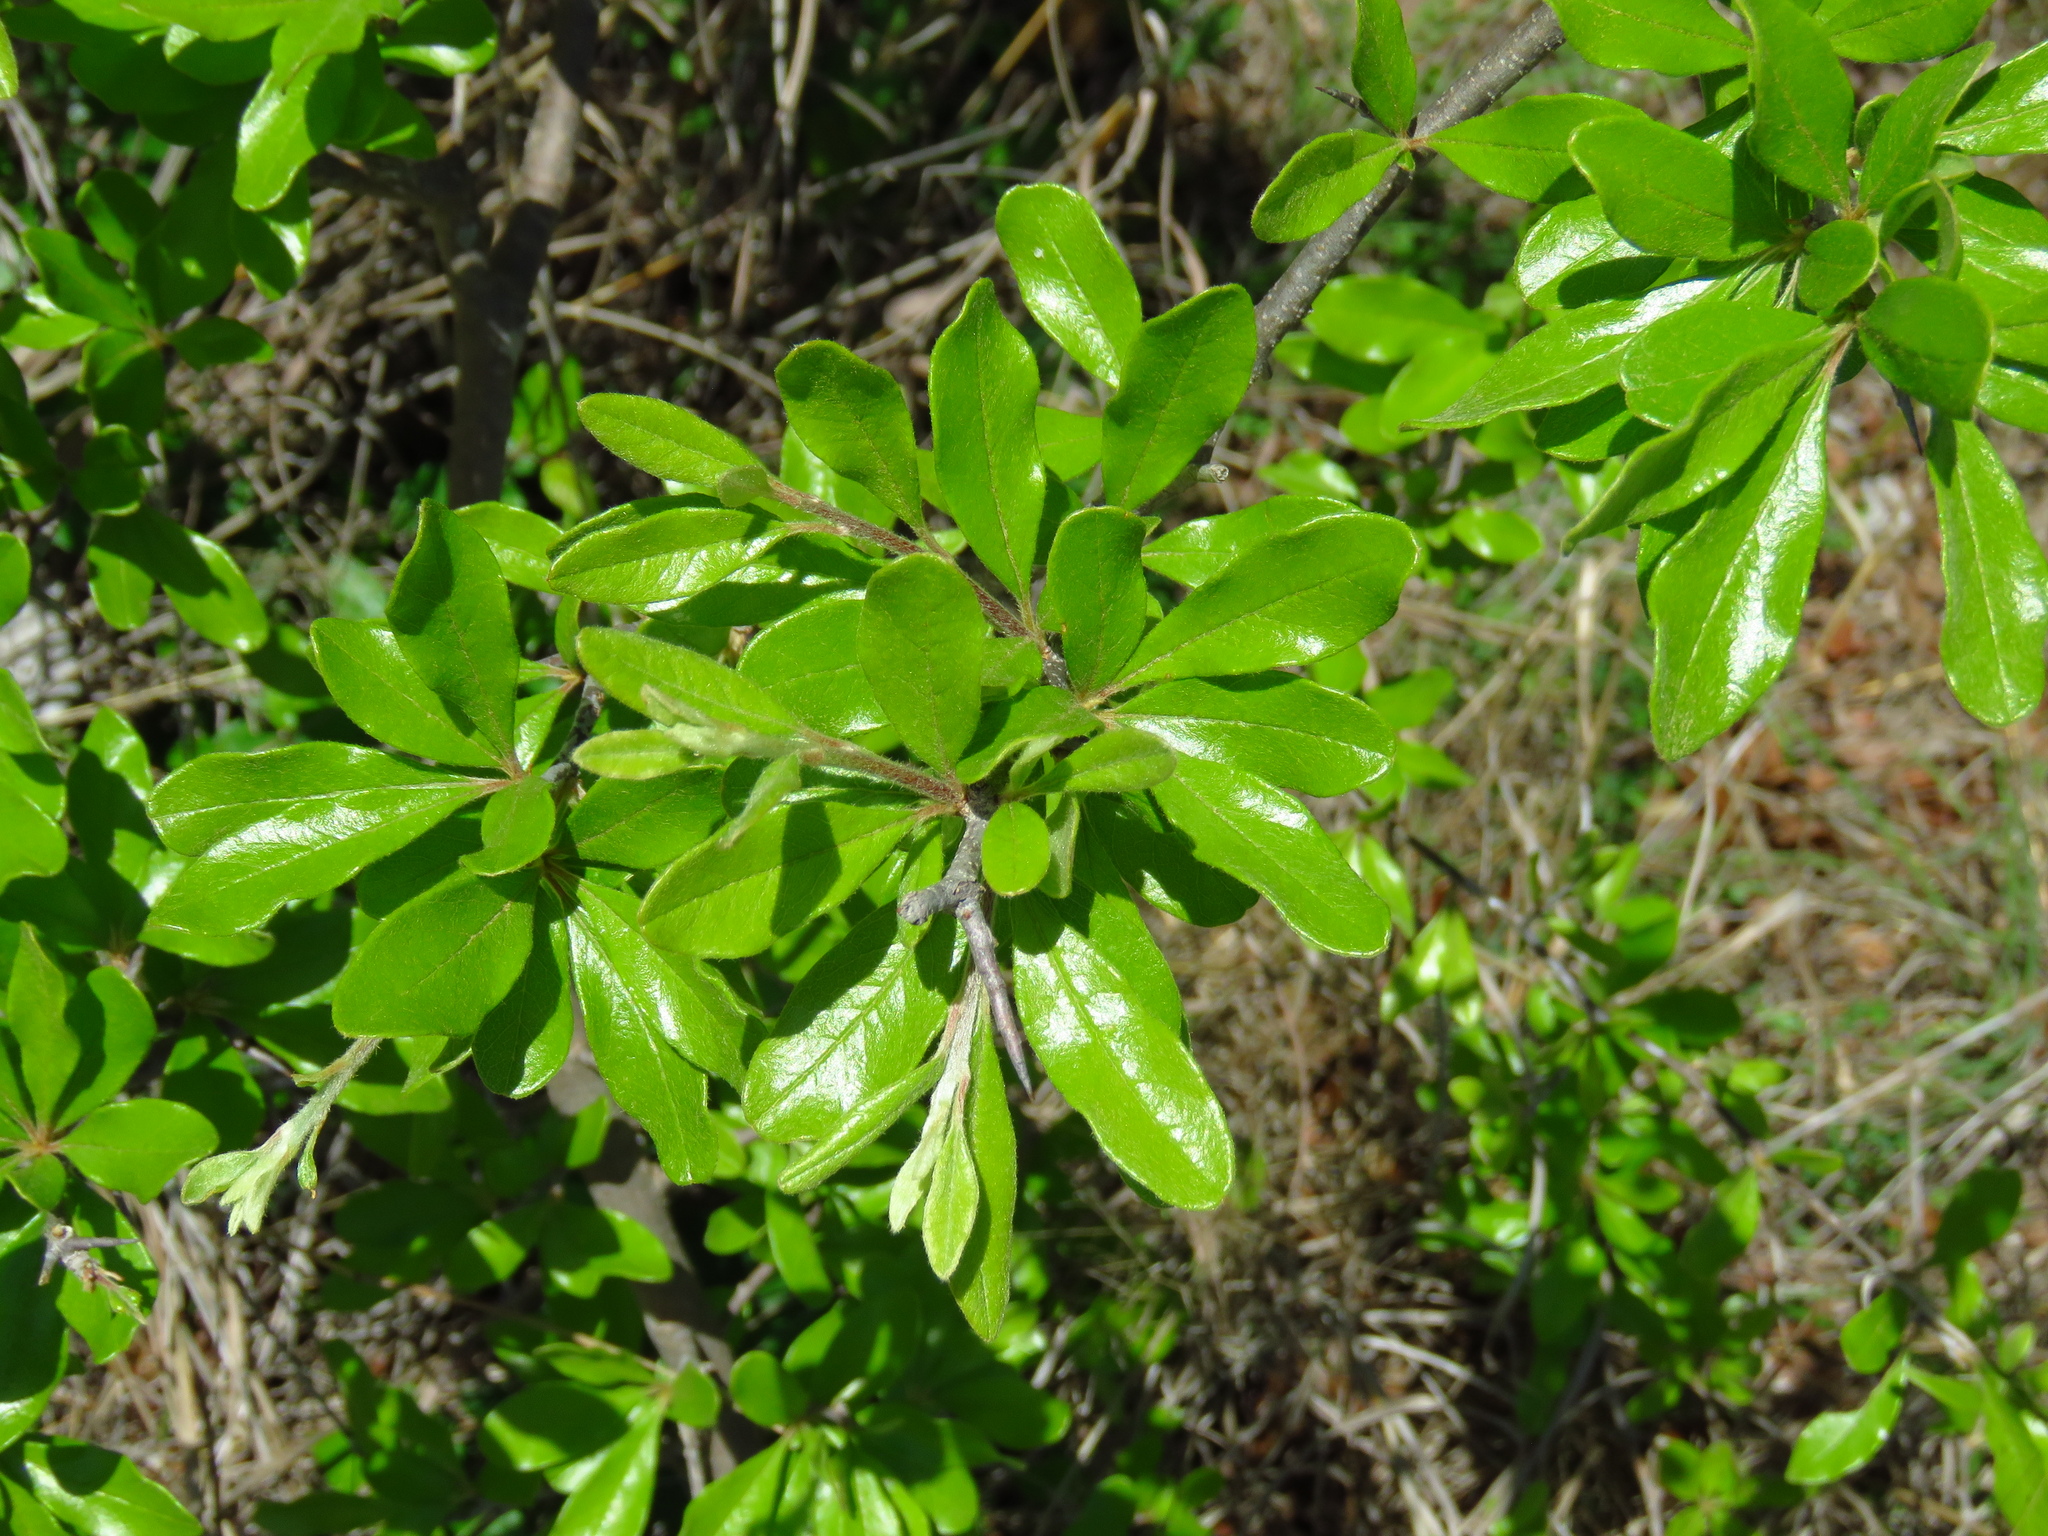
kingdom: Plantae
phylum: Tracheophyta
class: Magnoliopsida
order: Ericales
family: Sapotaceae
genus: Sideroxylon
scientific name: Sideroxylon lanuginosum
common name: Chittamwood
